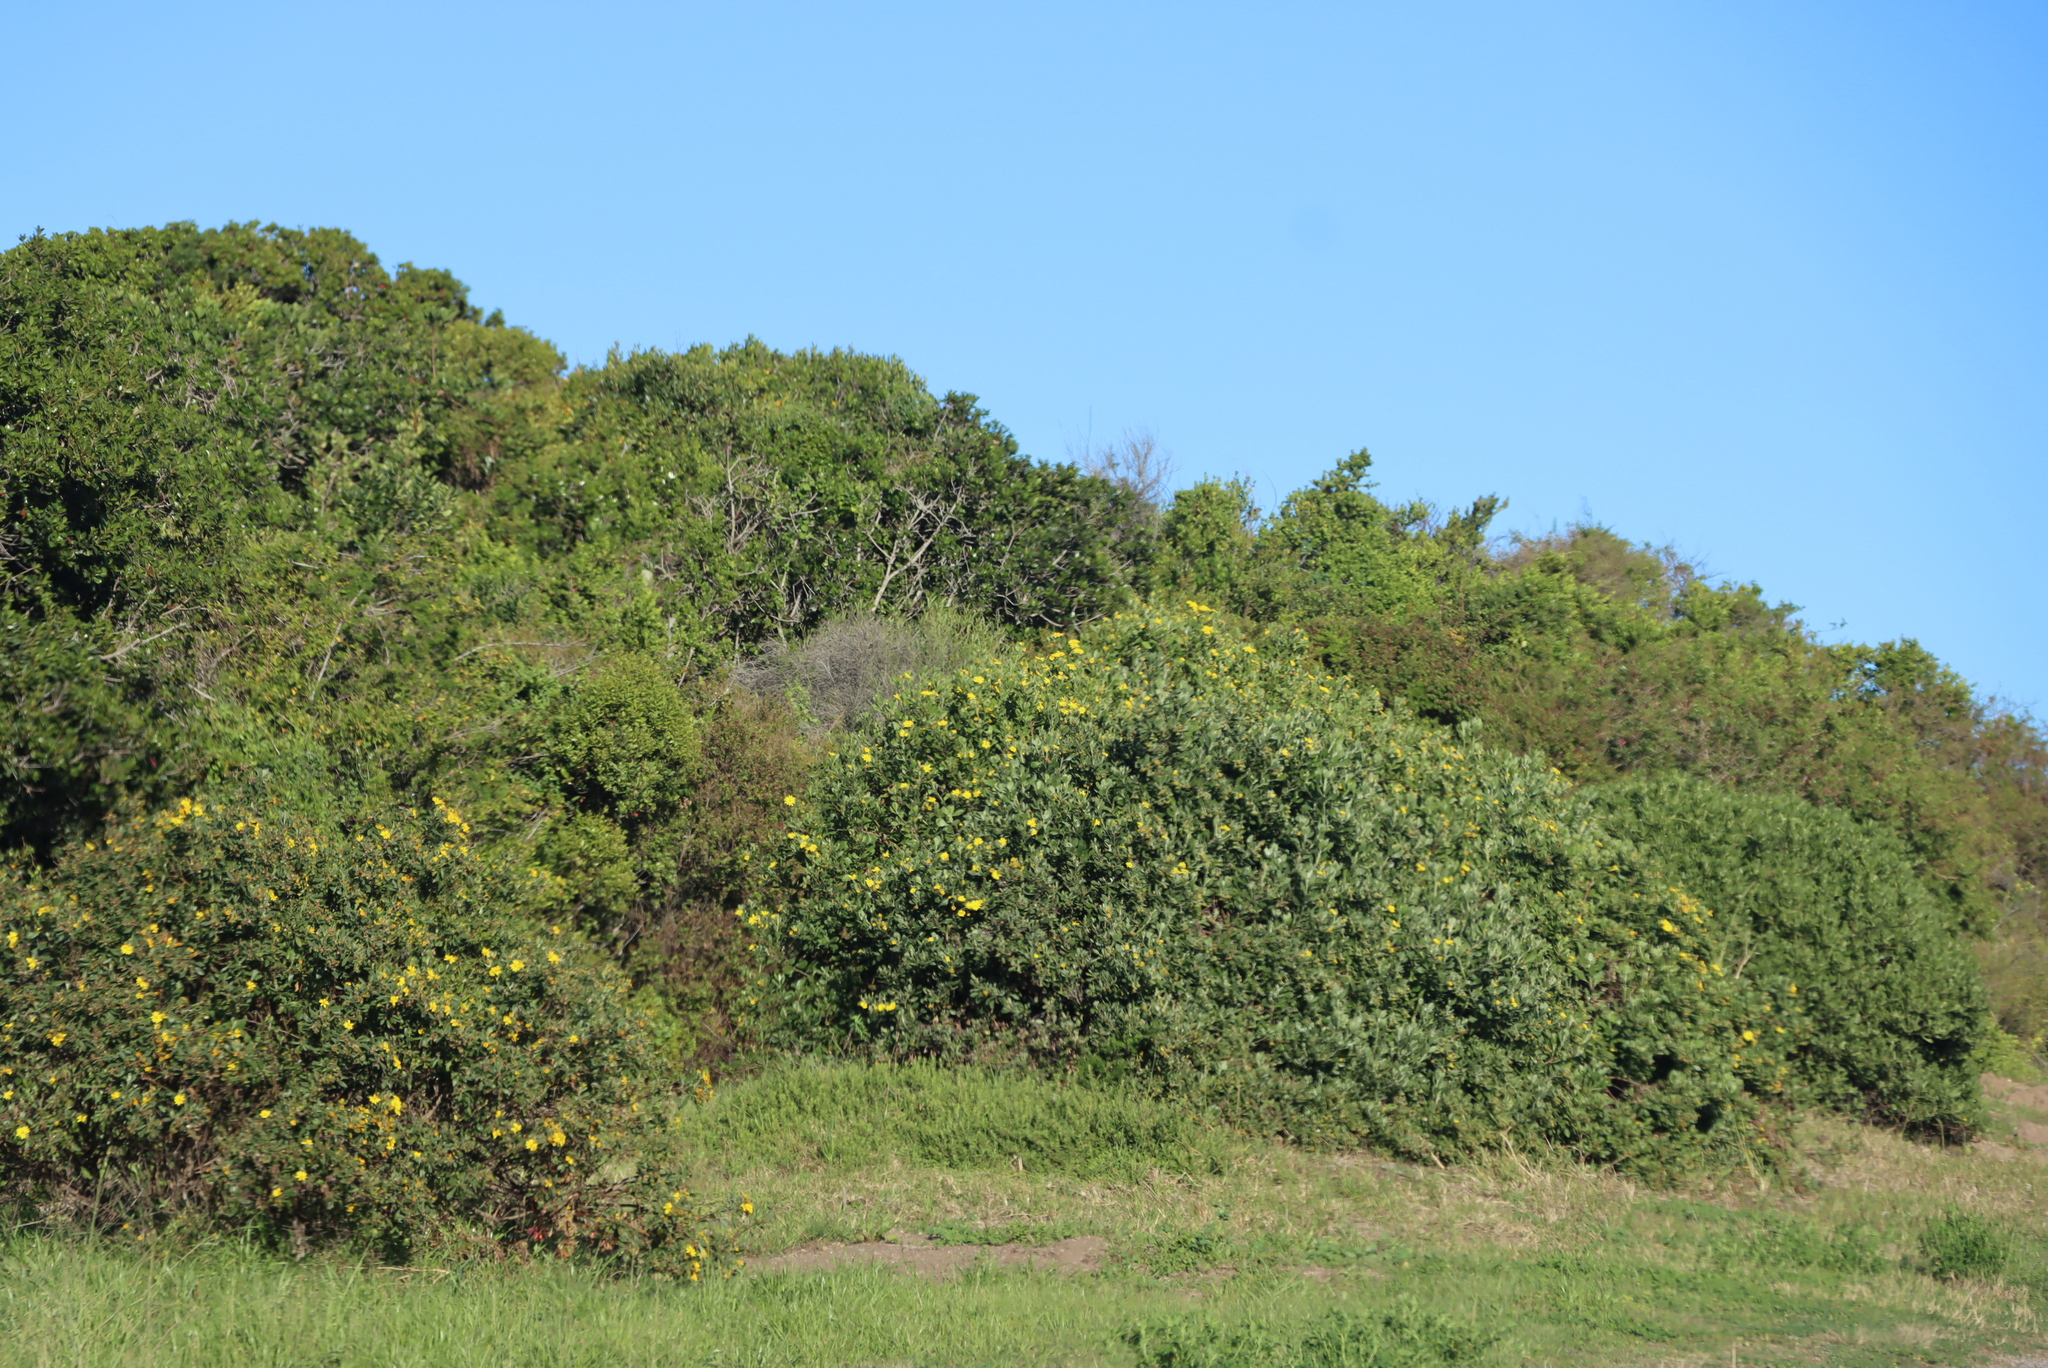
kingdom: Plantae
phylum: Tracheophyta
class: Magnoliopsida
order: Asterales
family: Asteraceae
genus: Osteospermum
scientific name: Osteospermum moniliferum
